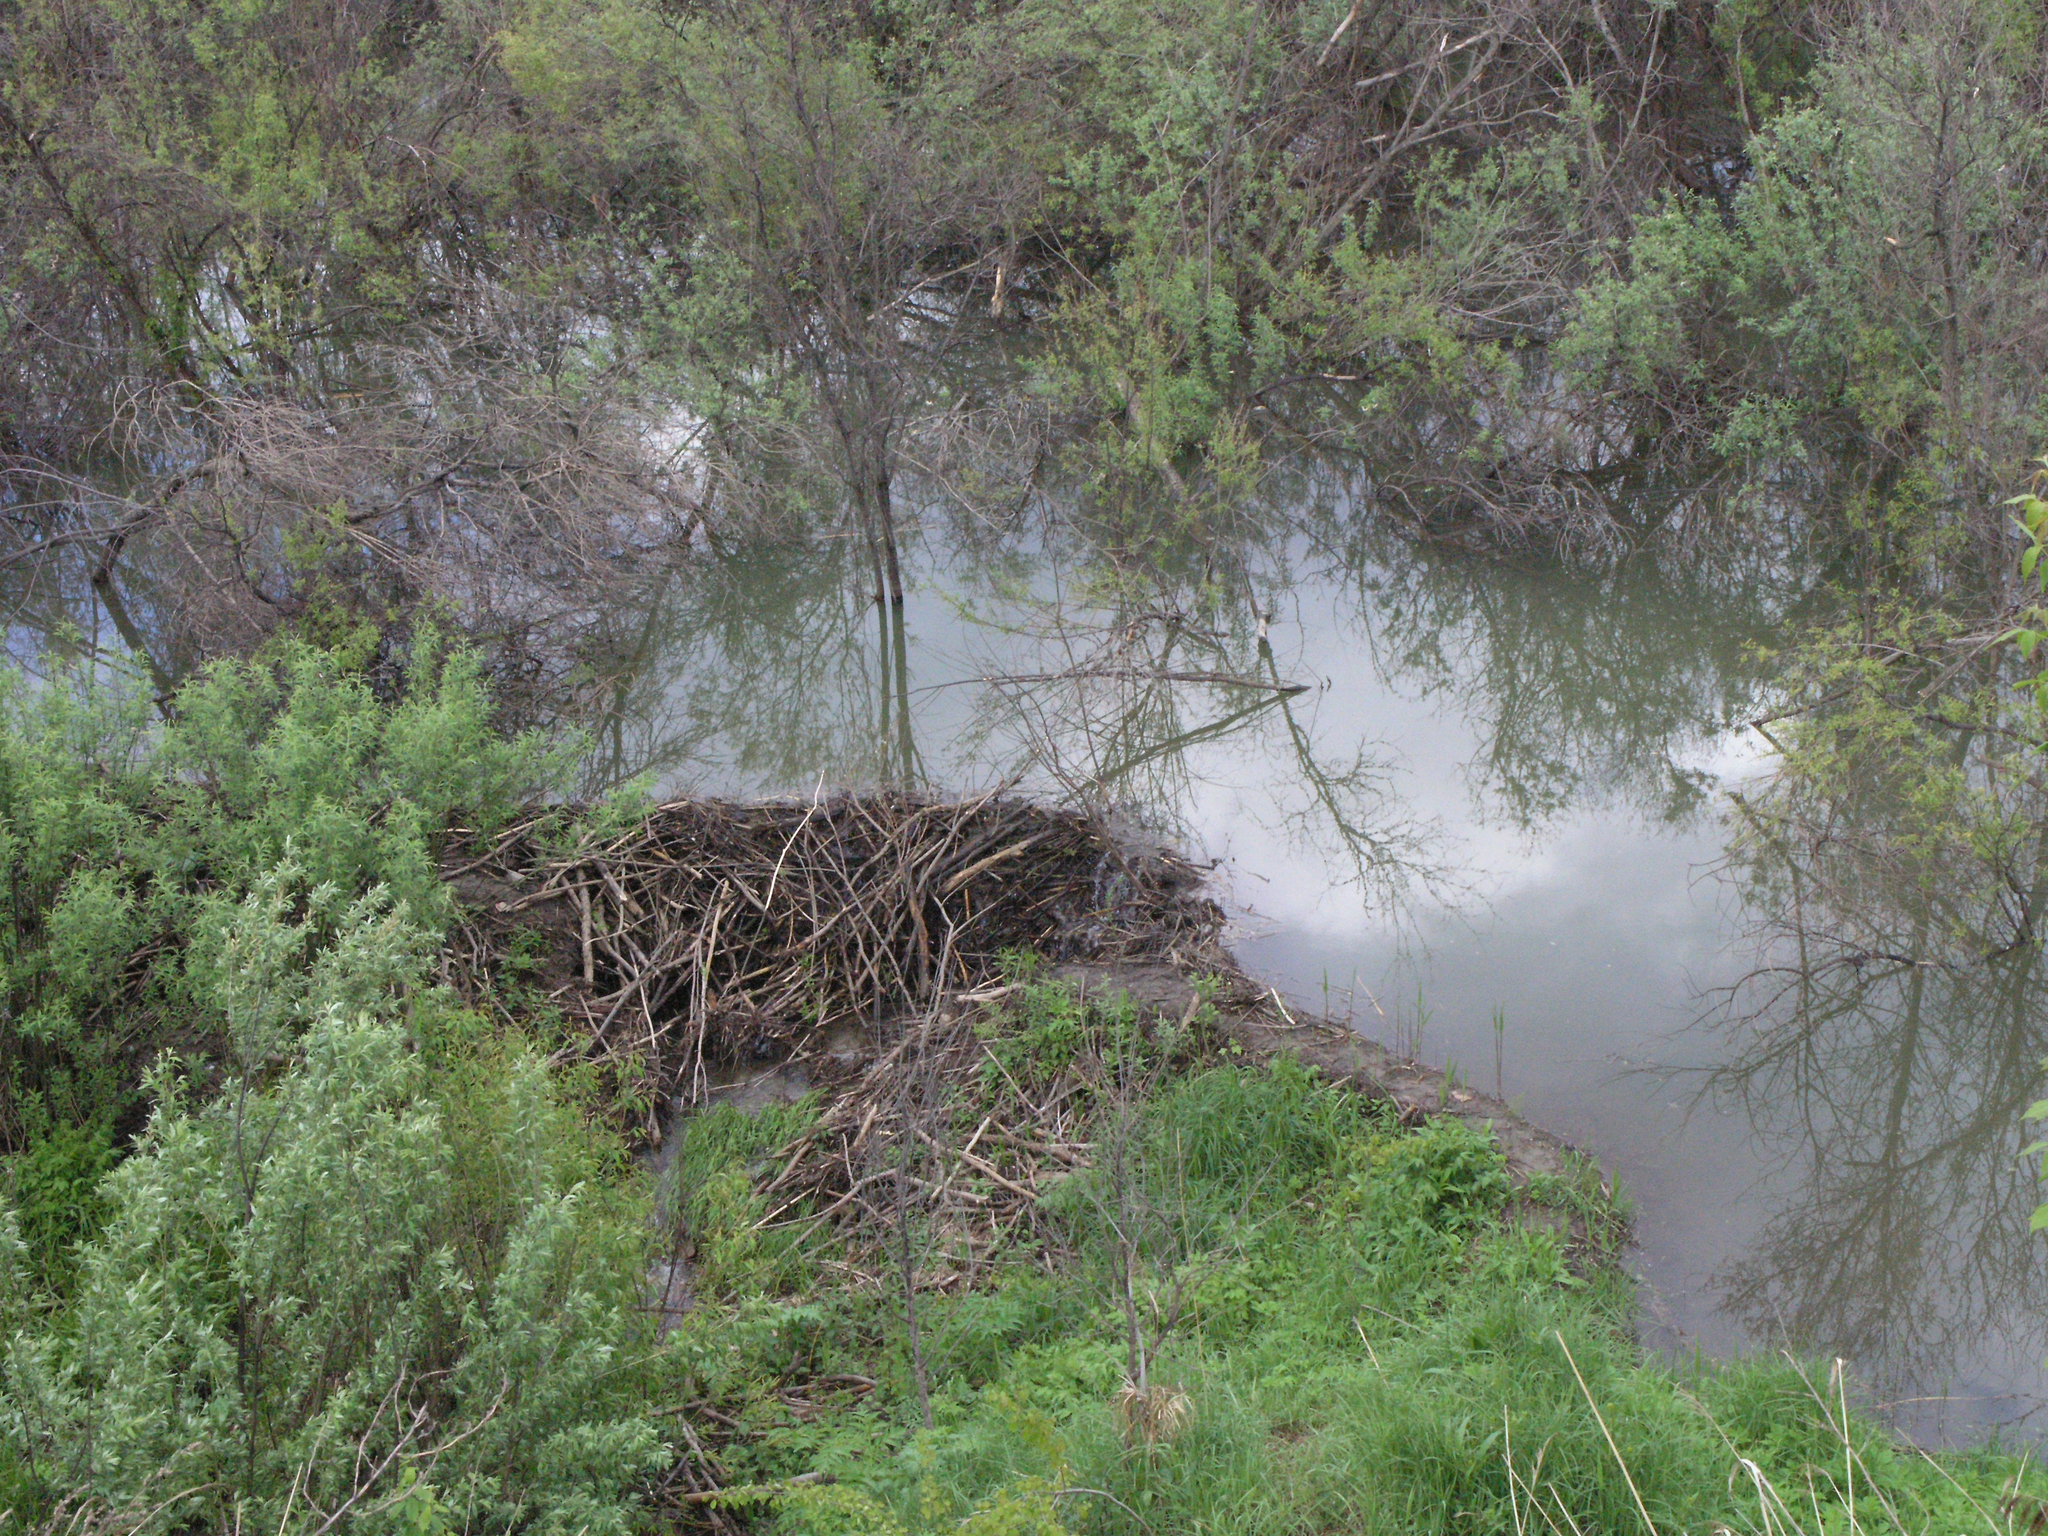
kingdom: Animalia
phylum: Chordata
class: Mammalia
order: Rodentia
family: Castoridae
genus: Castor
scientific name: Castor fiber
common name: Eurasian beaver
